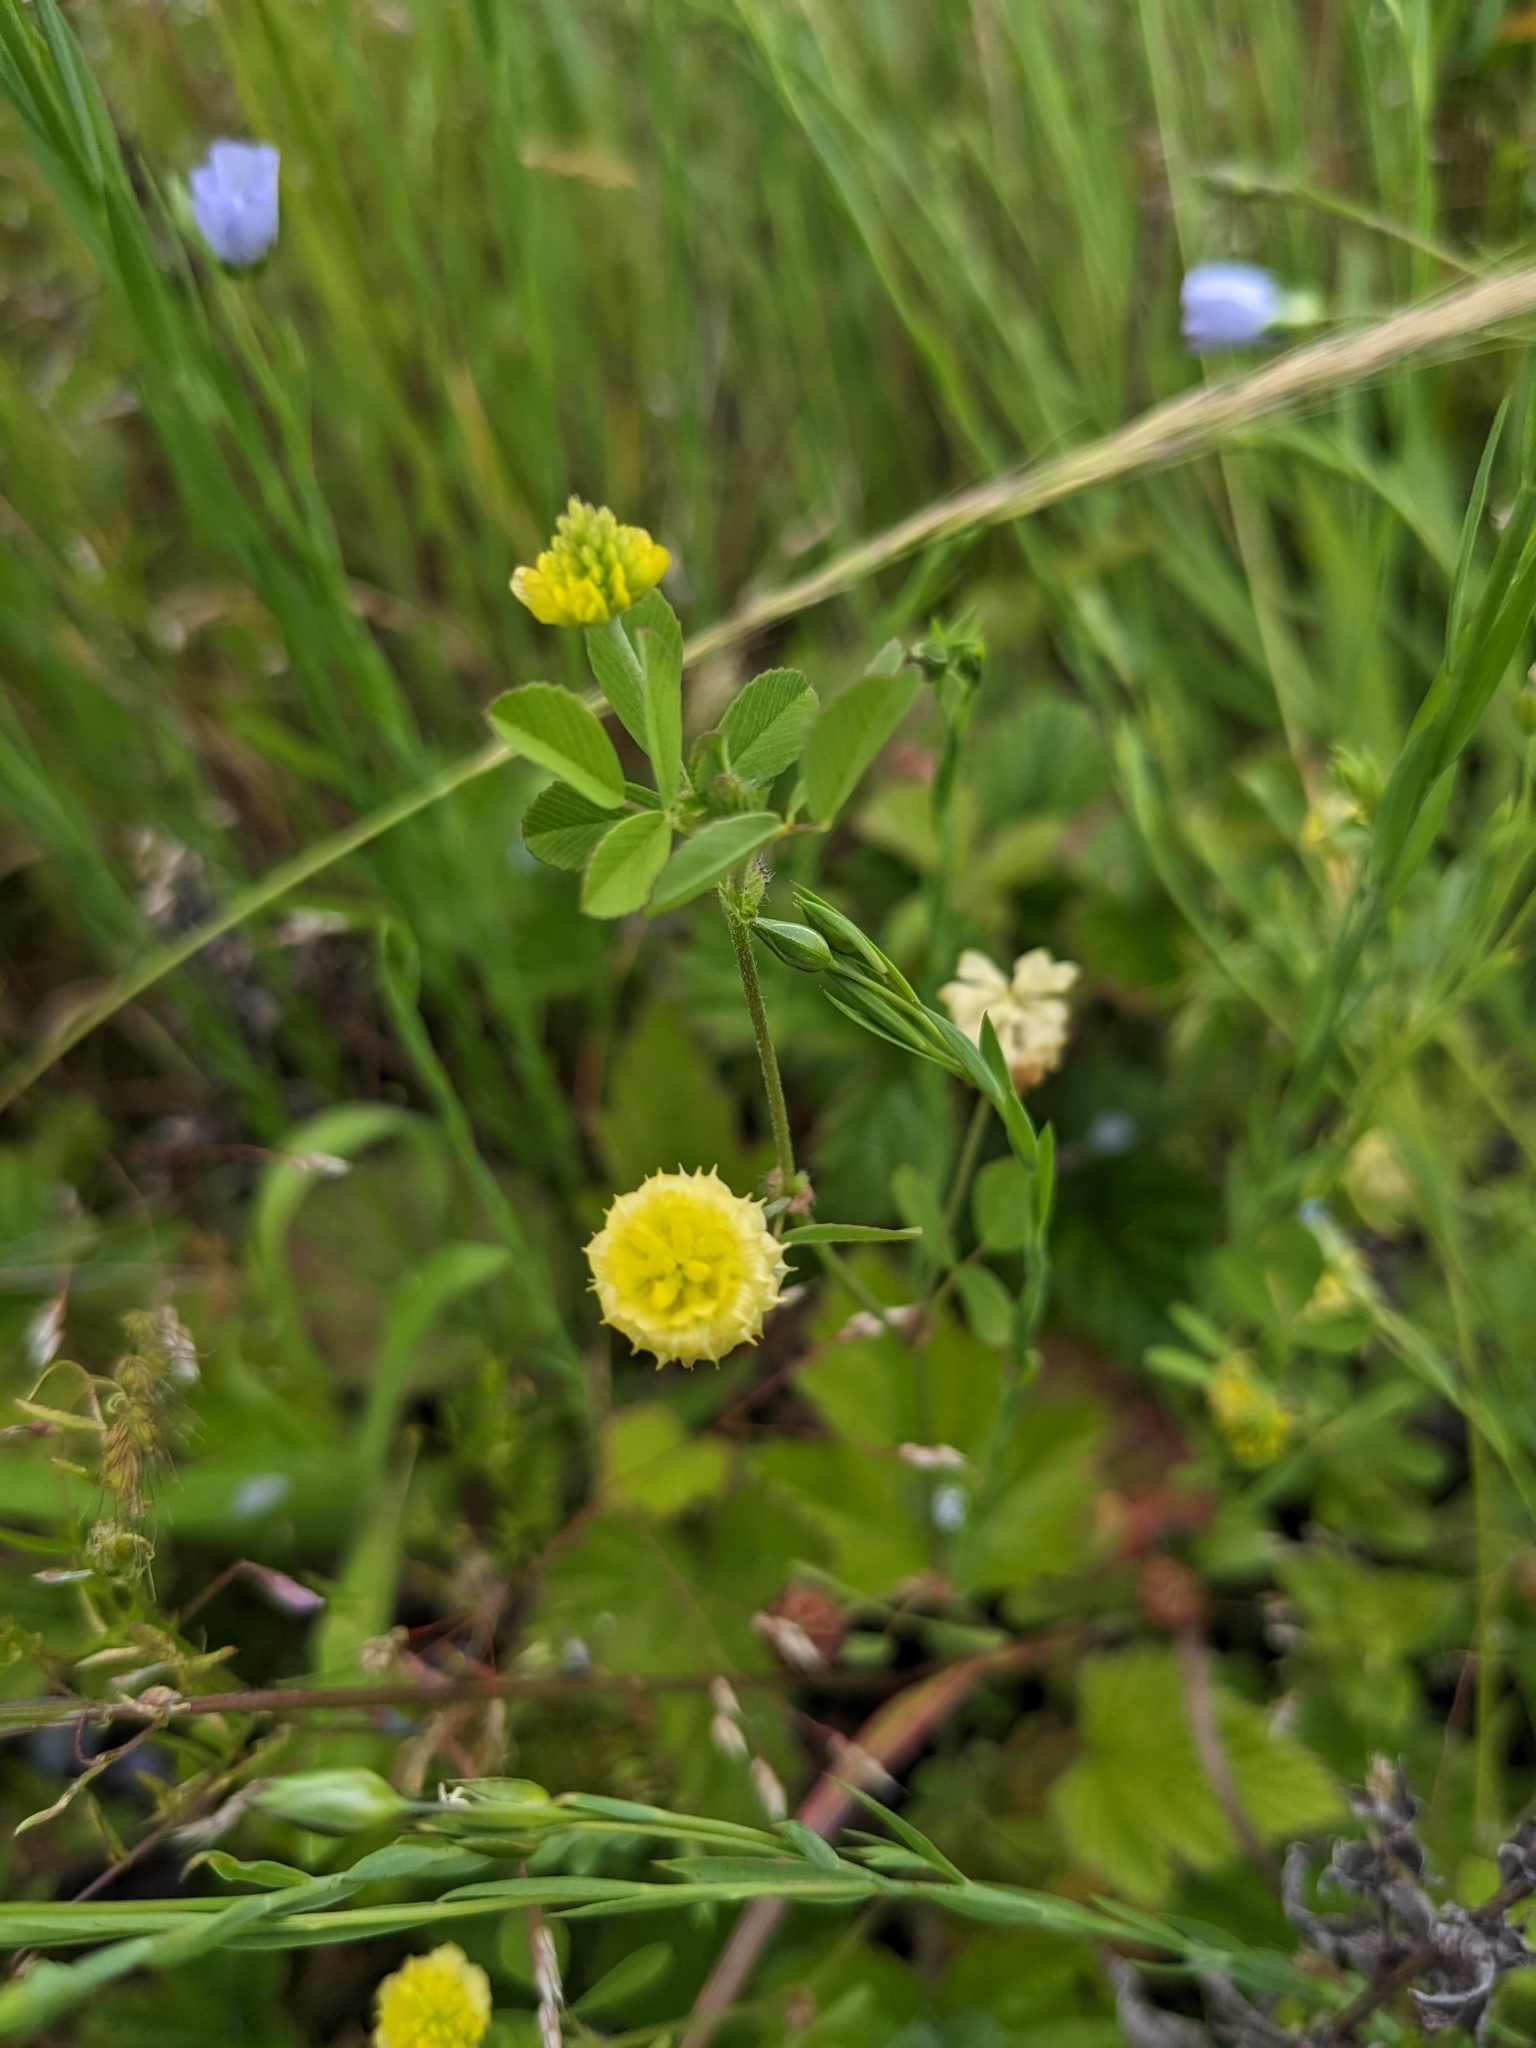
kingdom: Plantae
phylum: Tracheophyta
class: Magnoliopsida
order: Fabales
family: Fabaceae
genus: Trifolium
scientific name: Trifolium campestre
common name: Field clover
